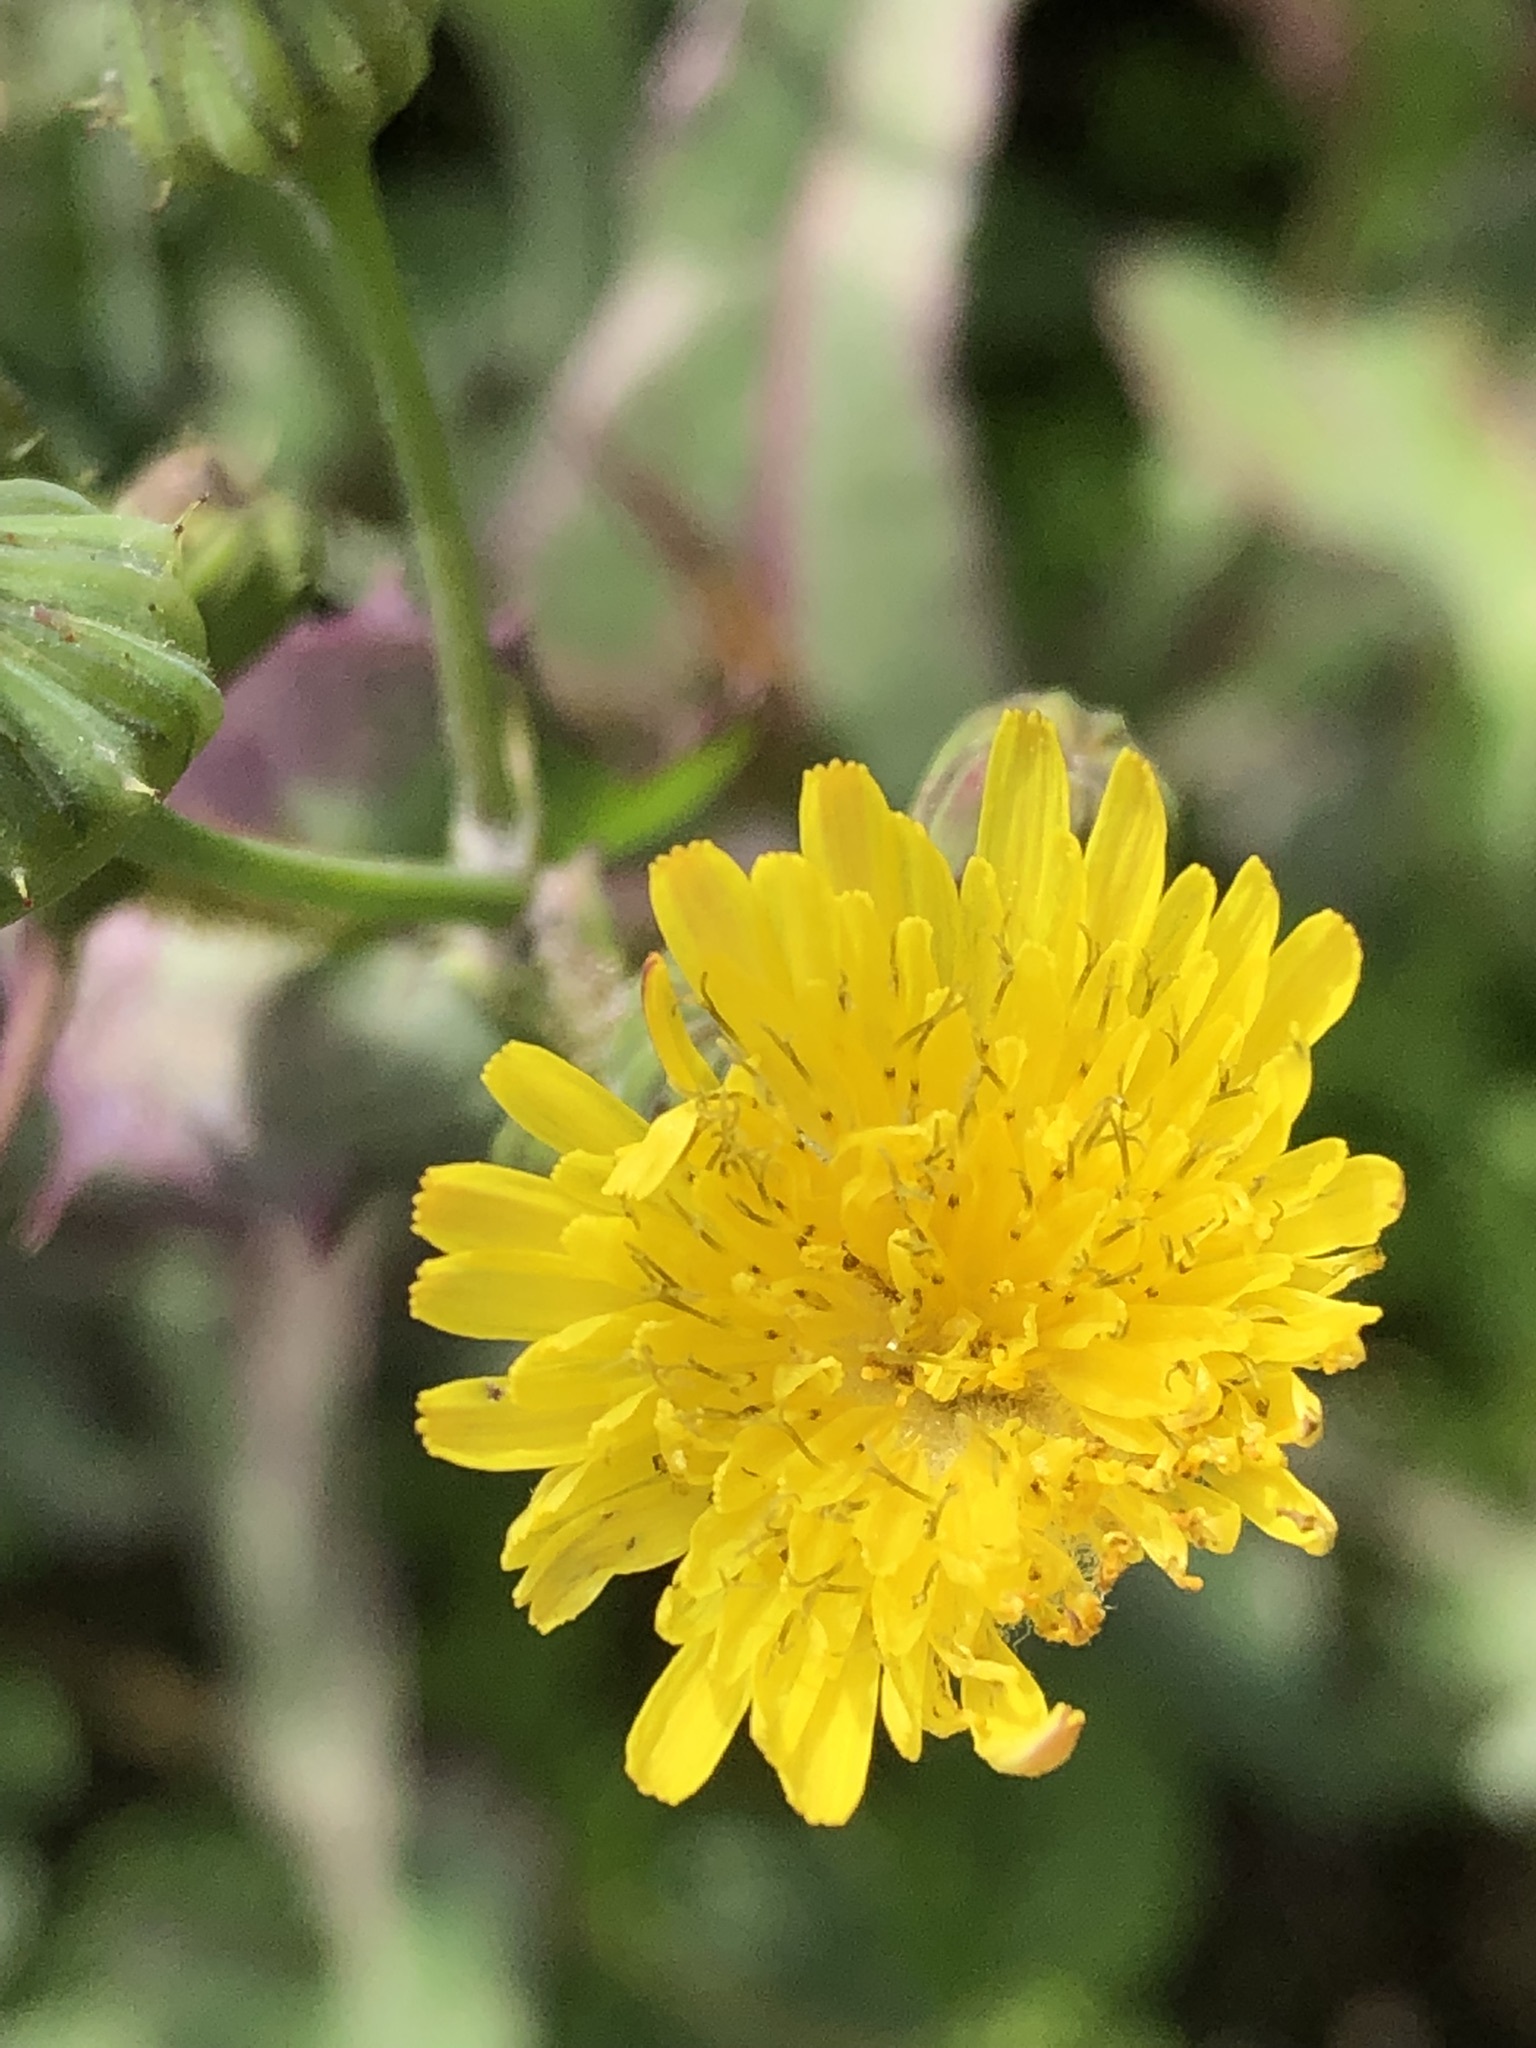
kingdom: Plantae
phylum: Tracheophyta
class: Magnoliopsida
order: Asterales
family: Asteraceae
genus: Sonchus
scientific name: Sonchus oleraceus
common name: Common sowthistle
